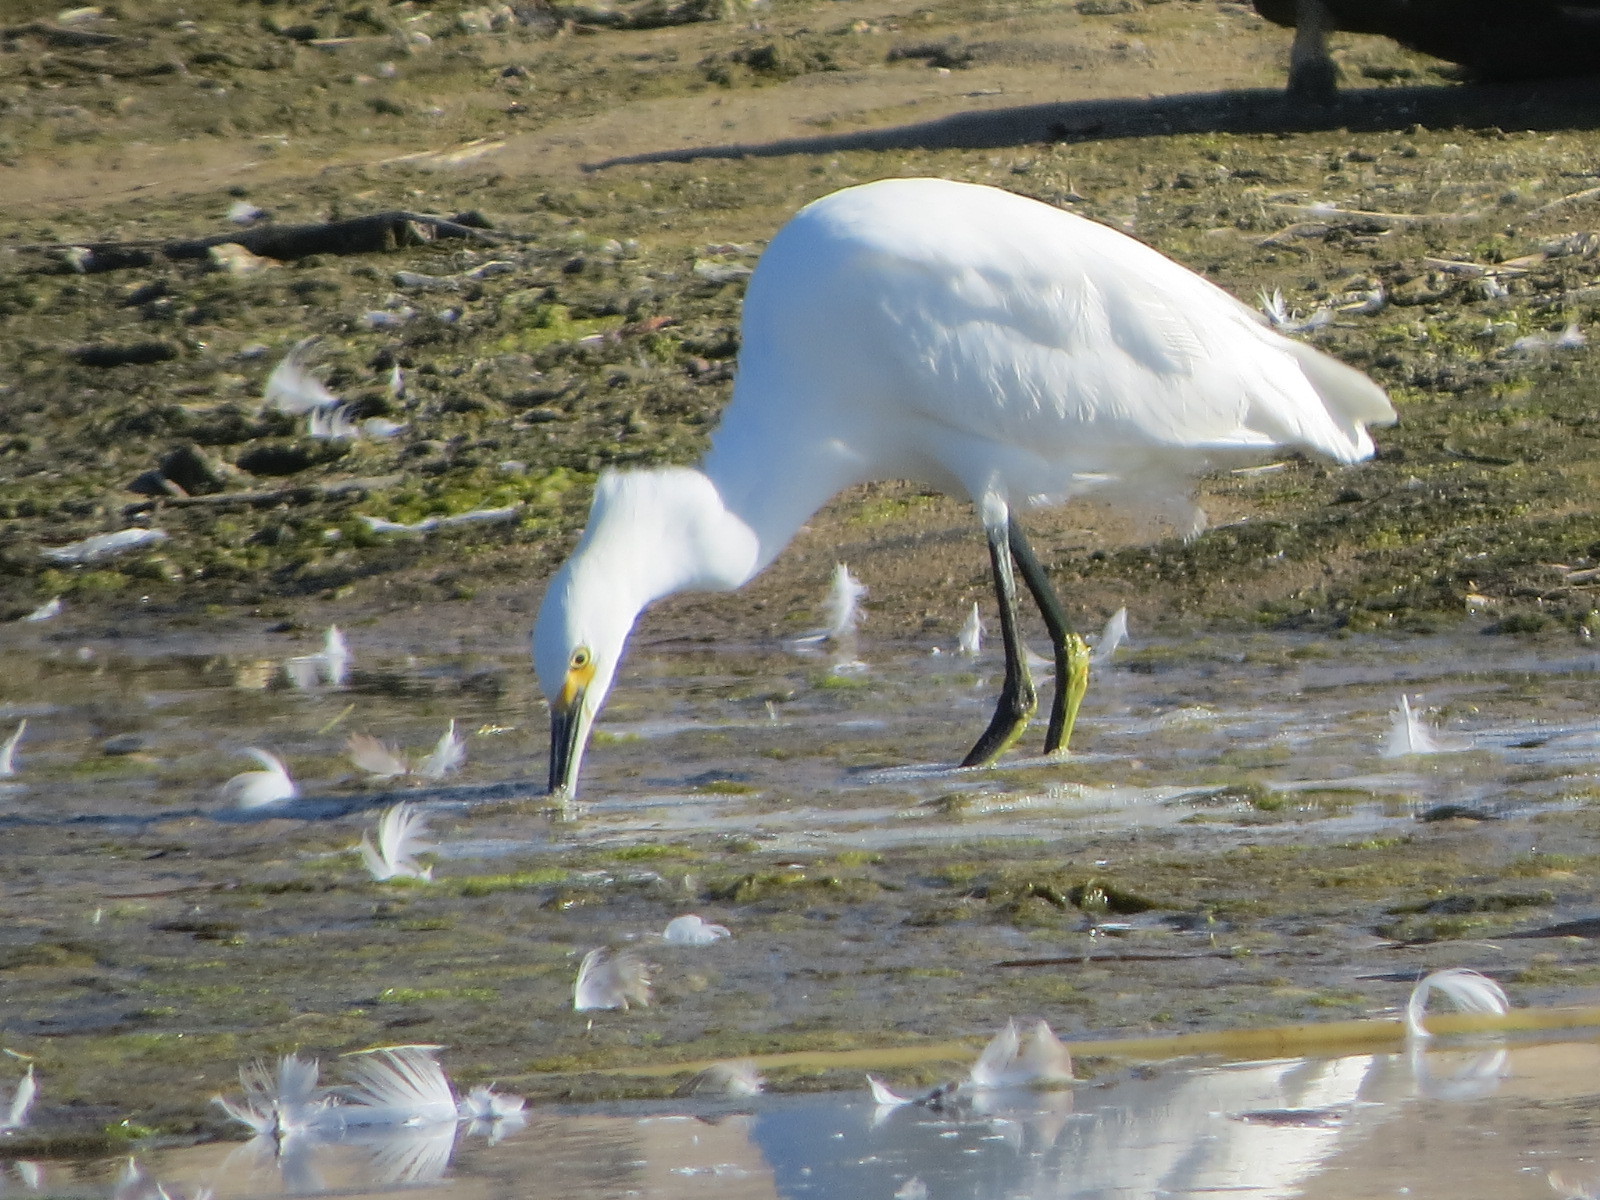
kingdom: Animalia
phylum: Chordata
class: Aves
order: Pelecaniformes
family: Ardeidae
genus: Egretta
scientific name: Egretta thula
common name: Snowy egret
